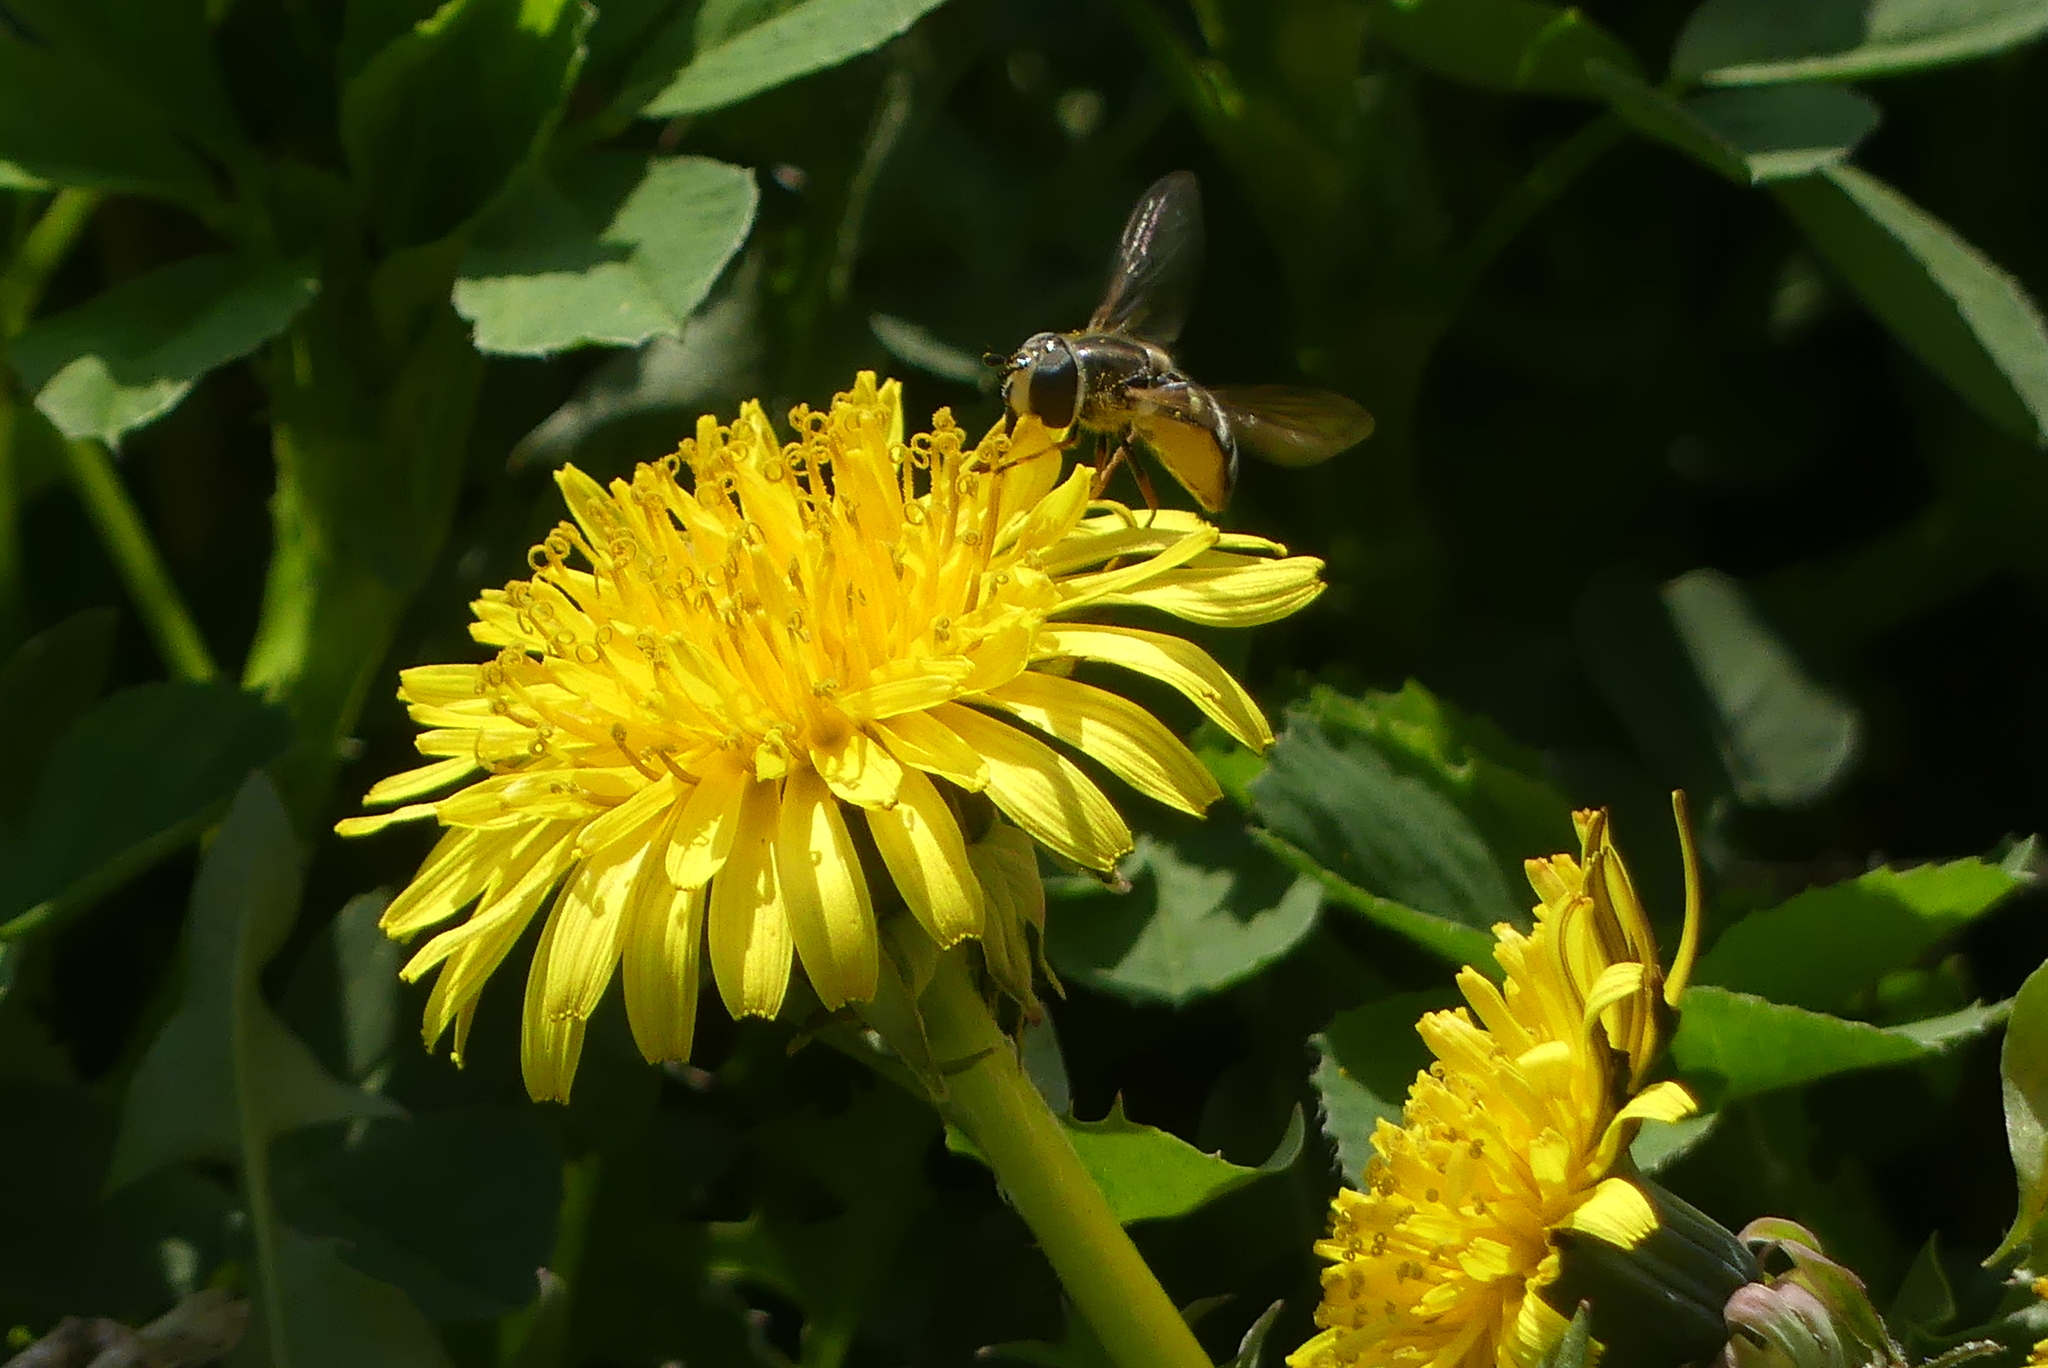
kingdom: Animalia
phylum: Arthropoda
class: Insecta
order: Diptera
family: Syrphidae
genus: Eupeodes
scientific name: Eupeodes volucris
